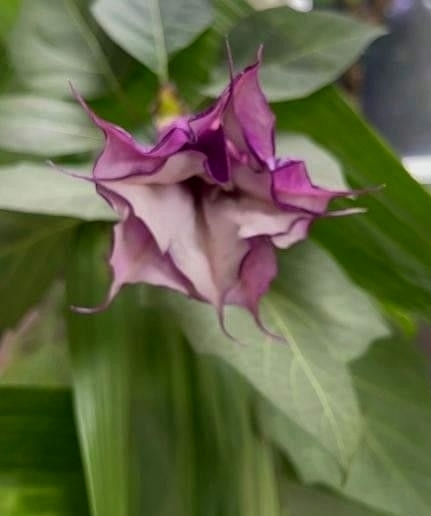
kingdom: Plantae
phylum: Tracheophyta
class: Magnoliopsida
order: Solanales
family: Solanaceae
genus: Datura
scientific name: Datura metel
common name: Jimsonweed
